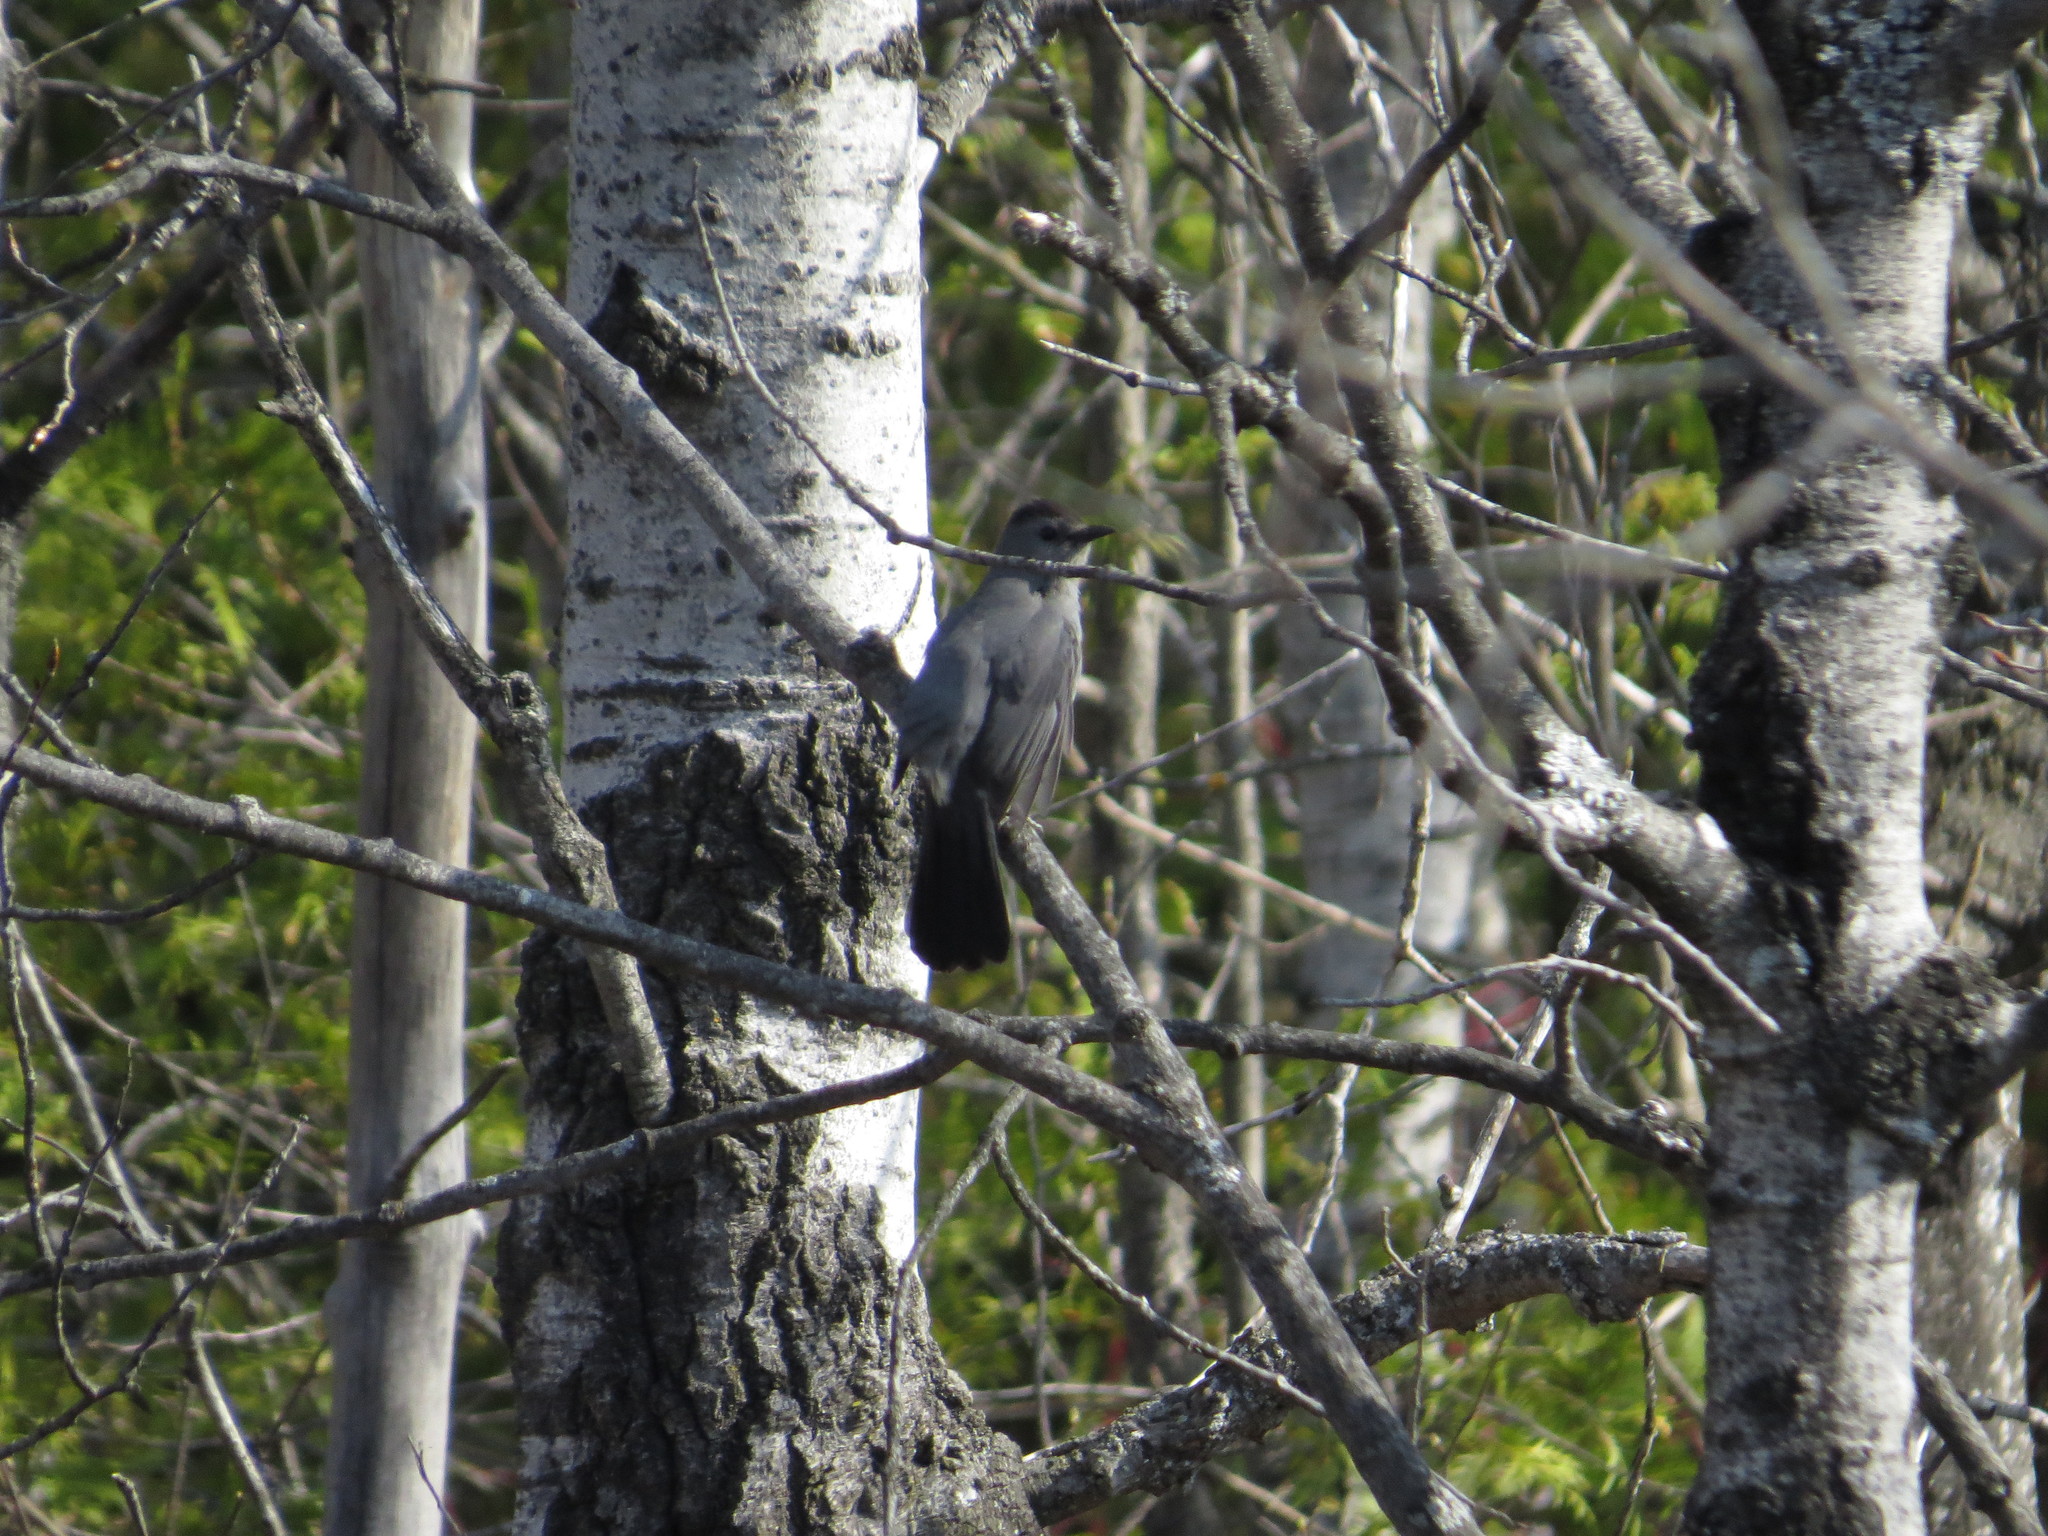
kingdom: Animalia
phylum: Chordata
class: Aves
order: Passeriformes
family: Mimidae
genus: Dumetella
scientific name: Dumetella carolinensis
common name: Gray catbird
